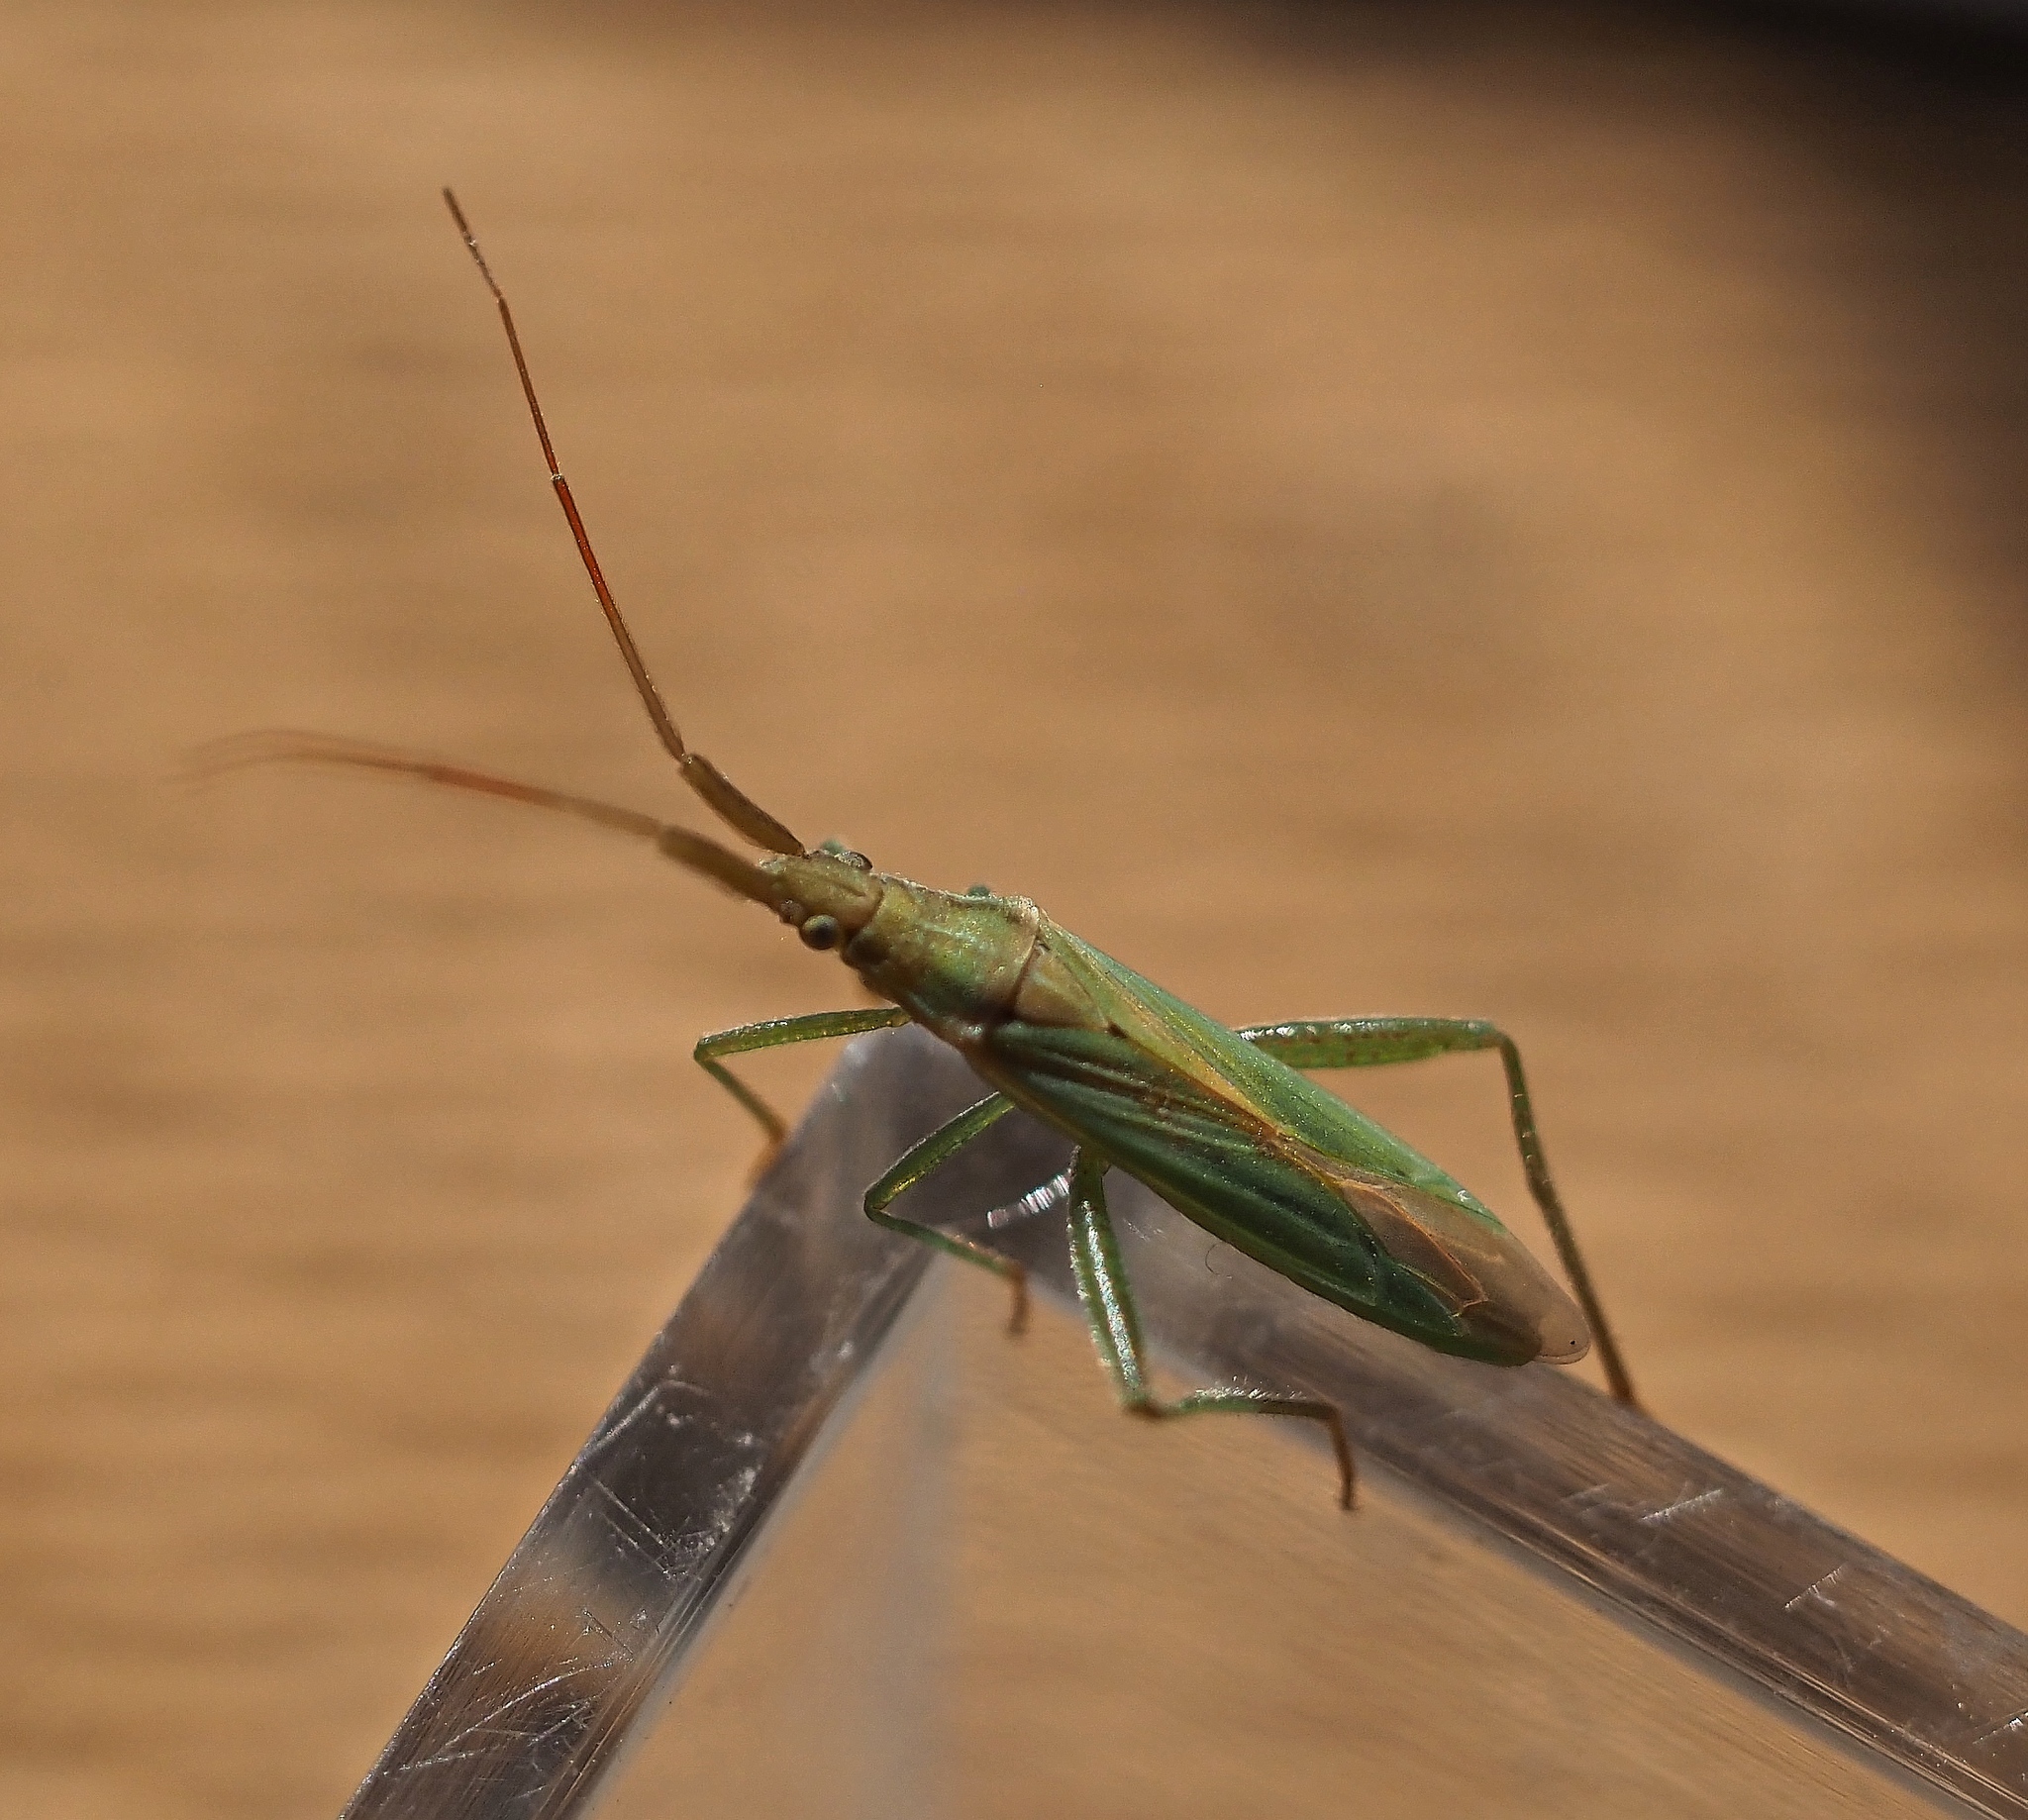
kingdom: Animalia
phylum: Arthropoda
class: Insecta
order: Hemiptera
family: Miridae
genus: Stenodema
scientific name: Stenodema laevigata
